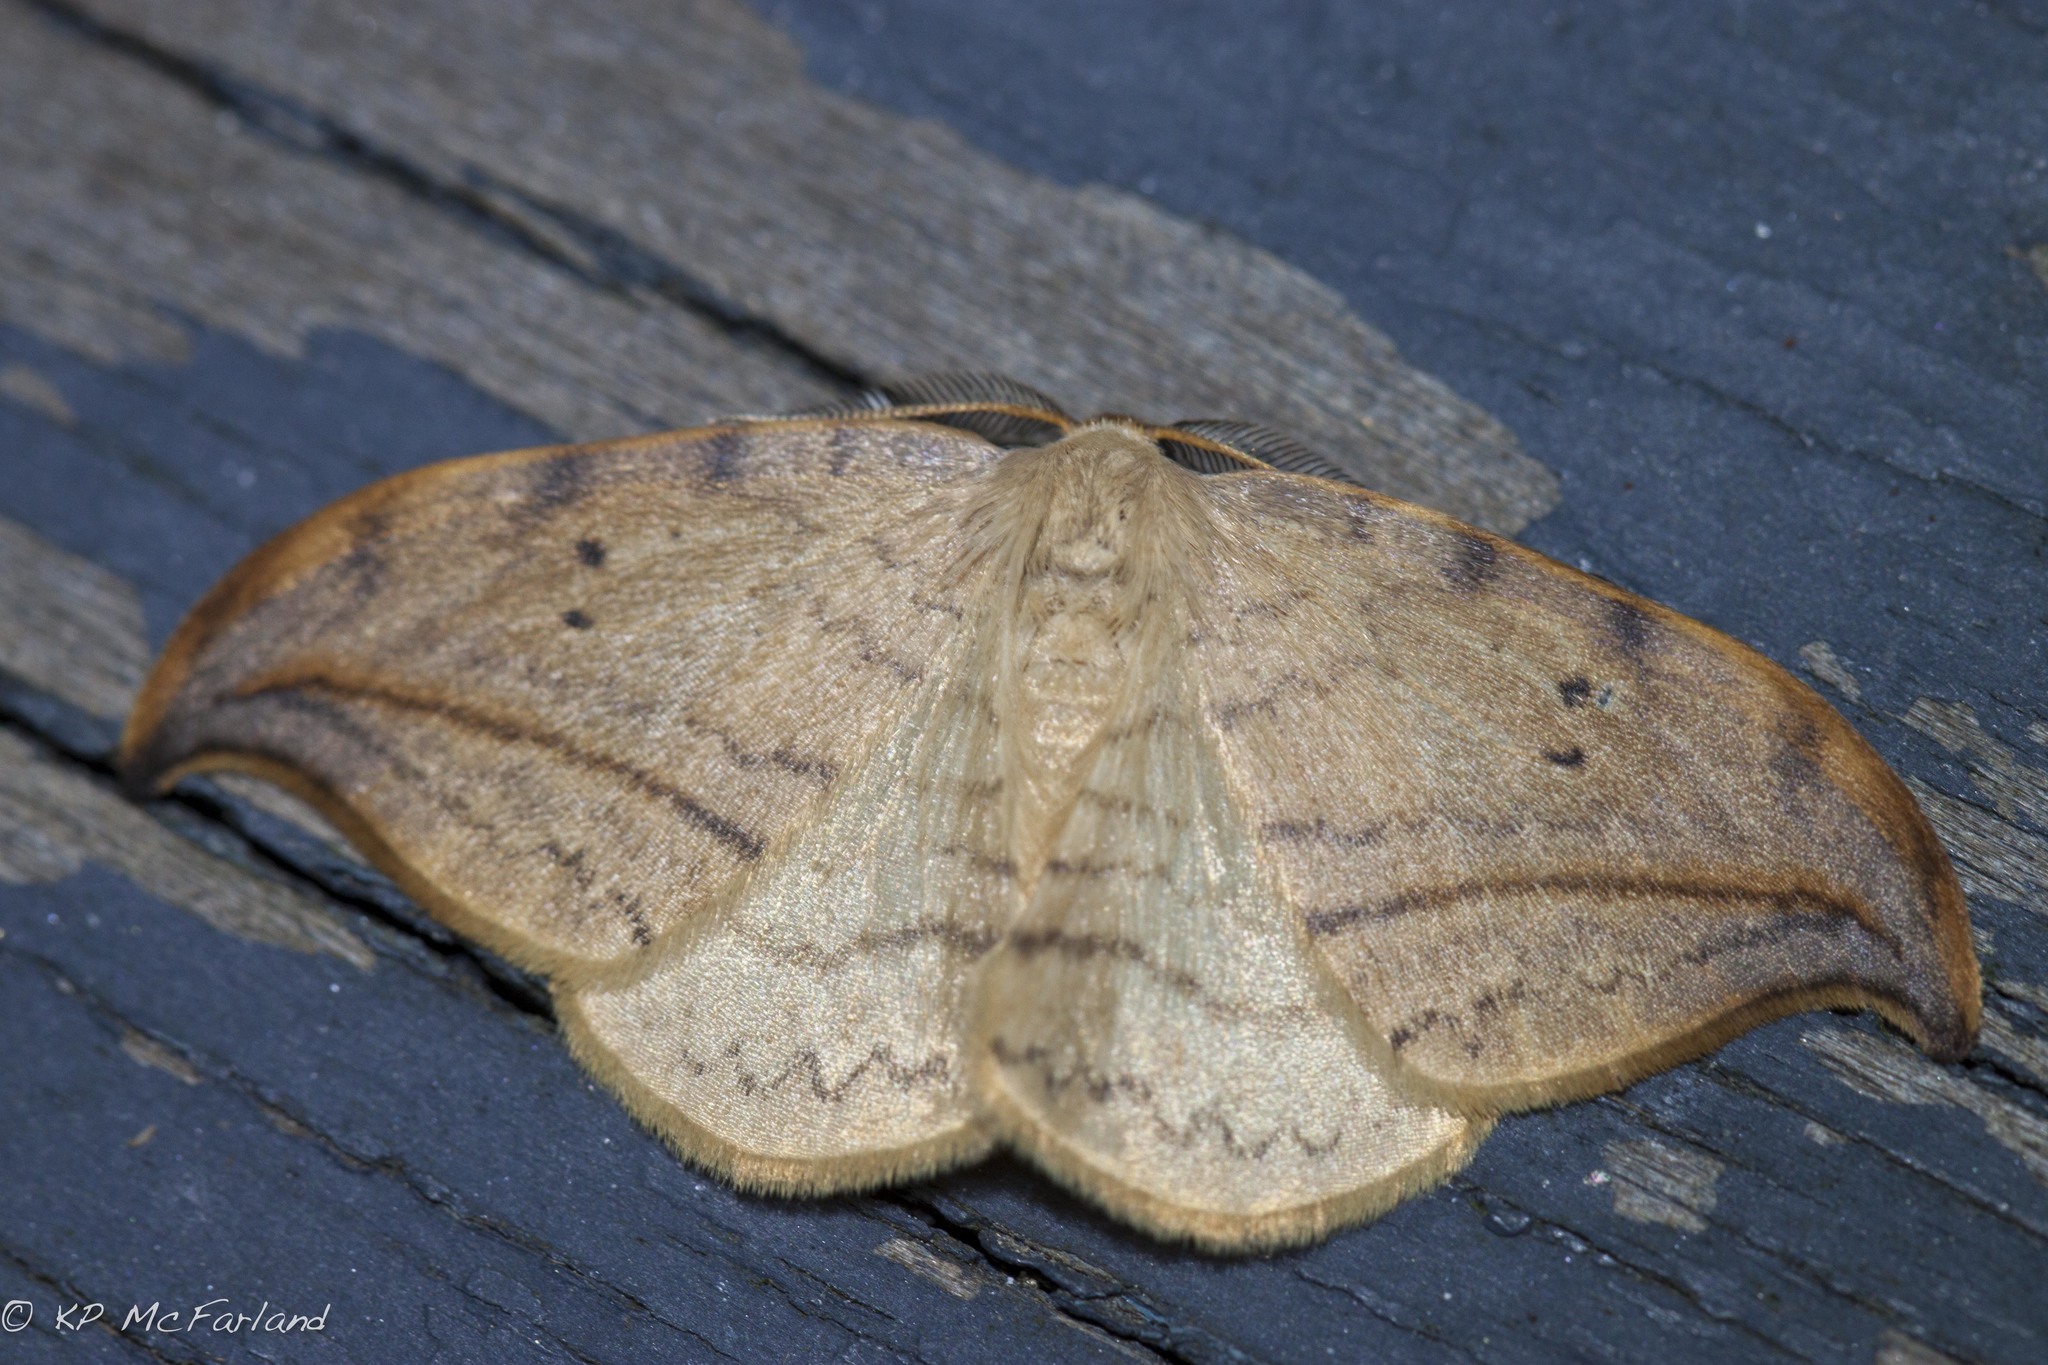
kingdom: Animalia
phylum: Arthropoda
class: Insecta
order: Lepidoptera
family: Drepanidae
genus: Drepana
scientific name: Drepana arcuata
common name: Arched hooktip moth
